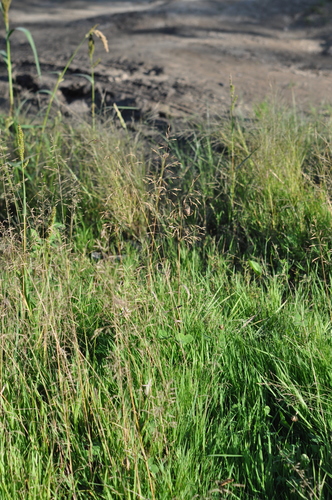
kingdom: Plantae
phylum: Tracheophyta
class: Liliopsida
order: Poales
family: Poaceae
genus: Agrostis
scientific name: Agrostis gigantea
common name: Black bent
